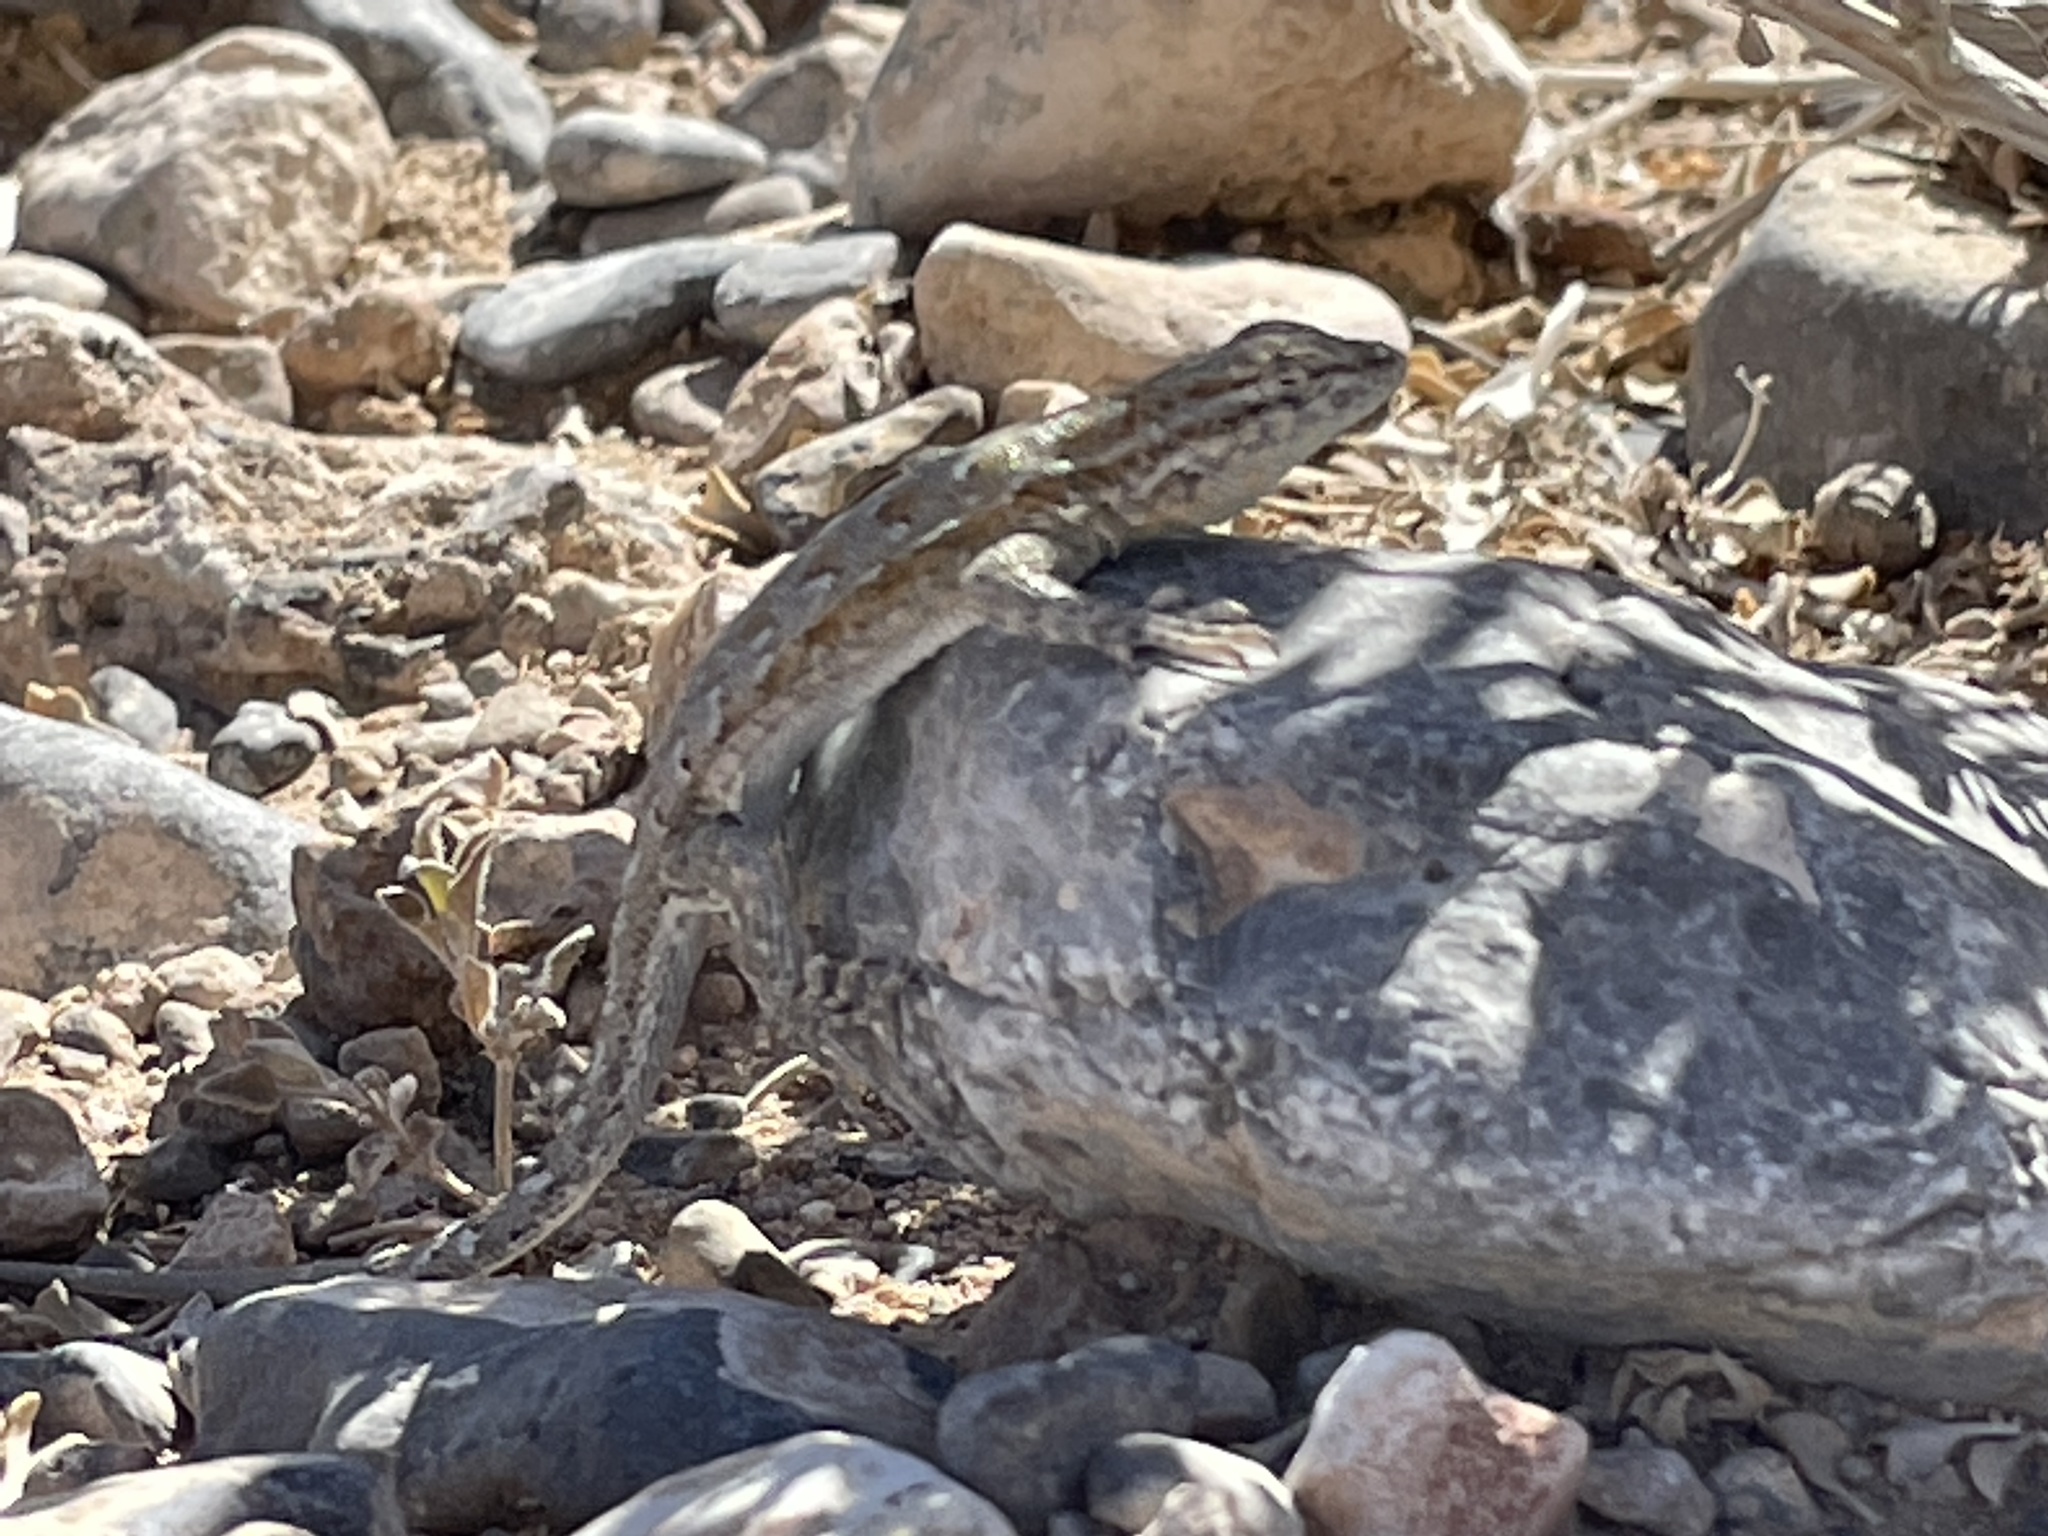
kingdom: Animalia
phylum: Chordata
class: Squamata
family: Phrynosomatidae
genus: Uta
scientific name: Uta stansburiana
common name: Side-blotched lizard
